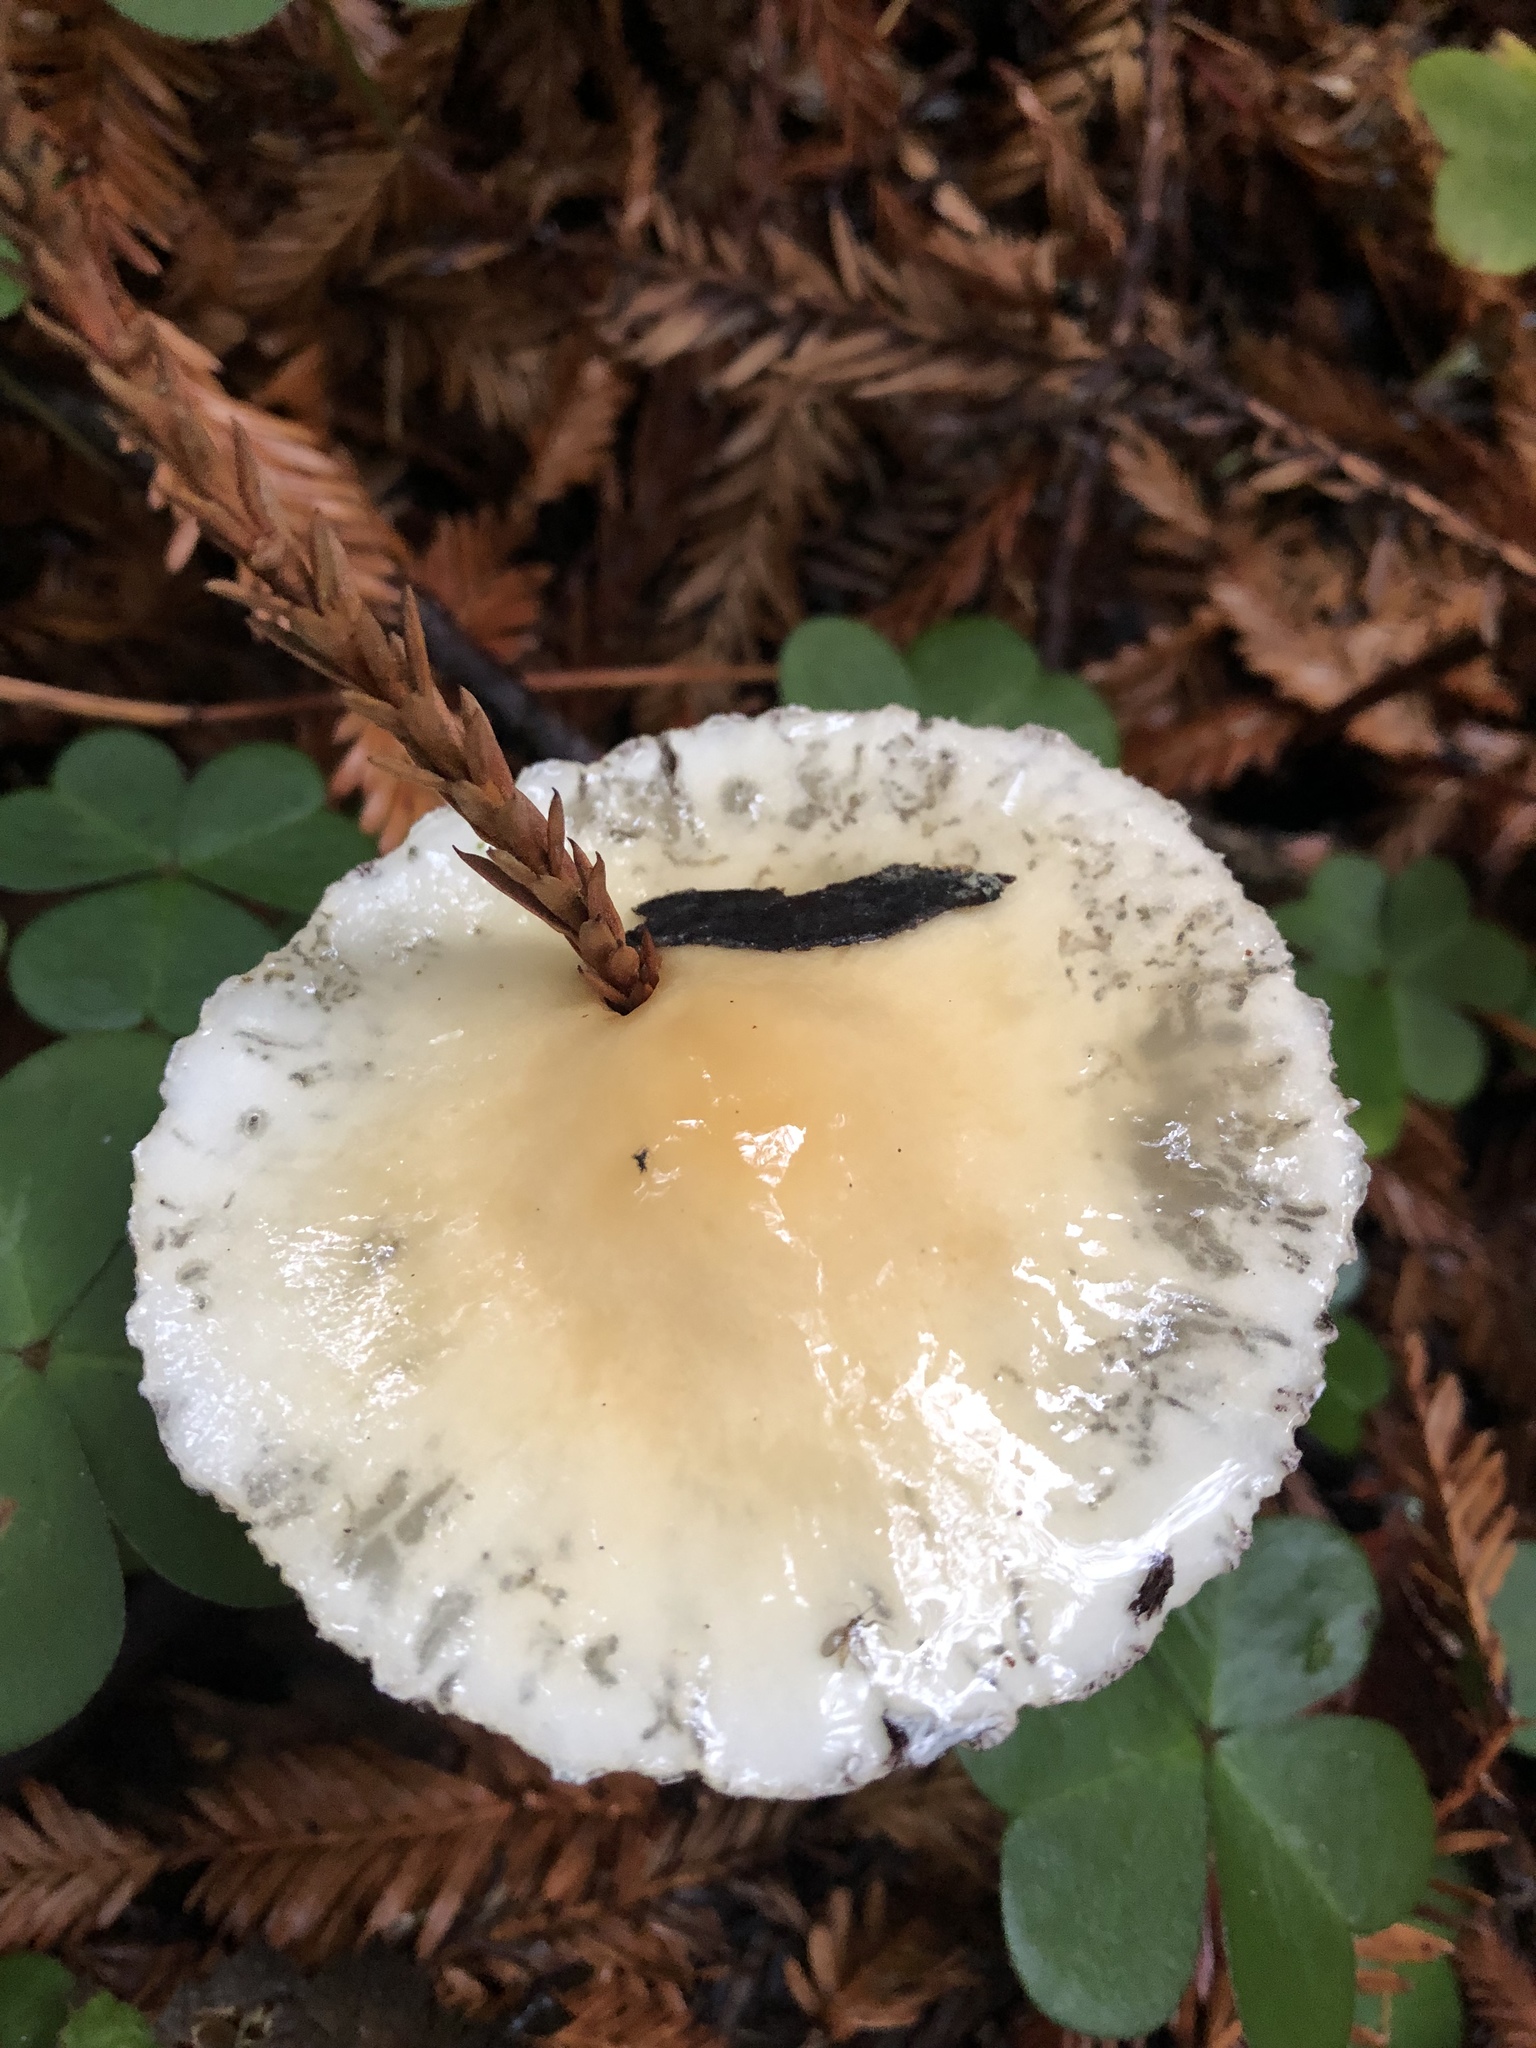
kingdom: Fungi
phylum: Basidiomycota
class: Agaricomycetes
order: Agaricales
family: Strophariaceae
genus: Stropharia
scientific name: Stropharia ambigua
